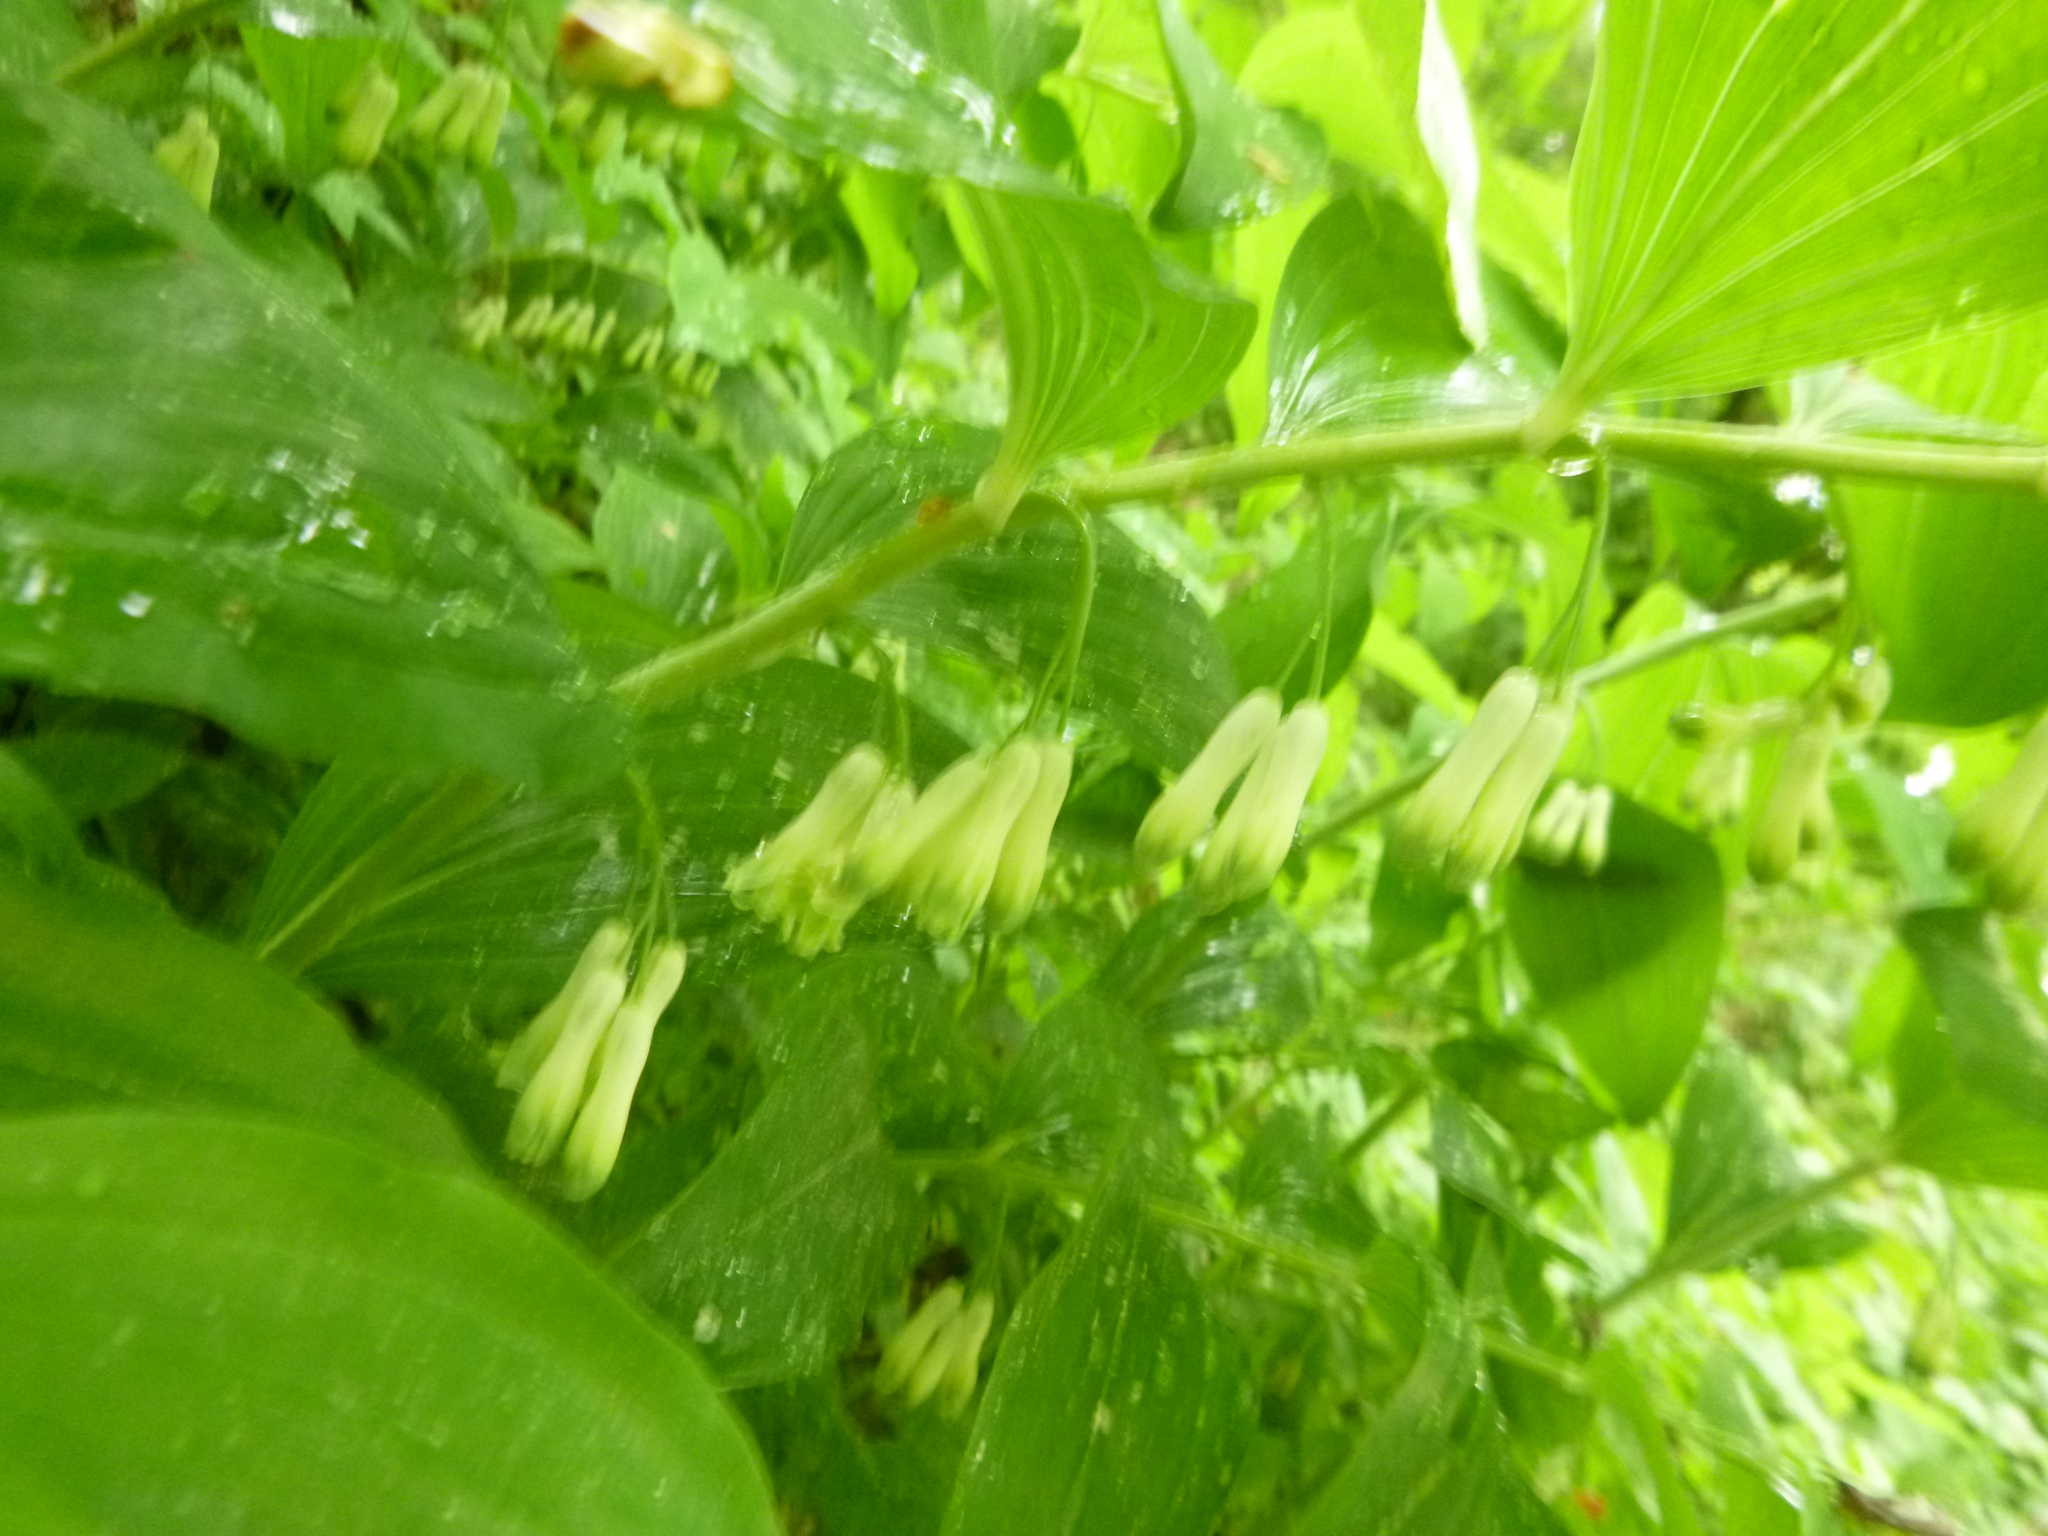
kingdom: Plantae
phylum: Tracheophyta
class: Liliopsida
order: Asparagales
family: Asparagaceae
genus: Polygonatum
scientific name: Polygonatum multiflorum
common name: Solomon's-seal
